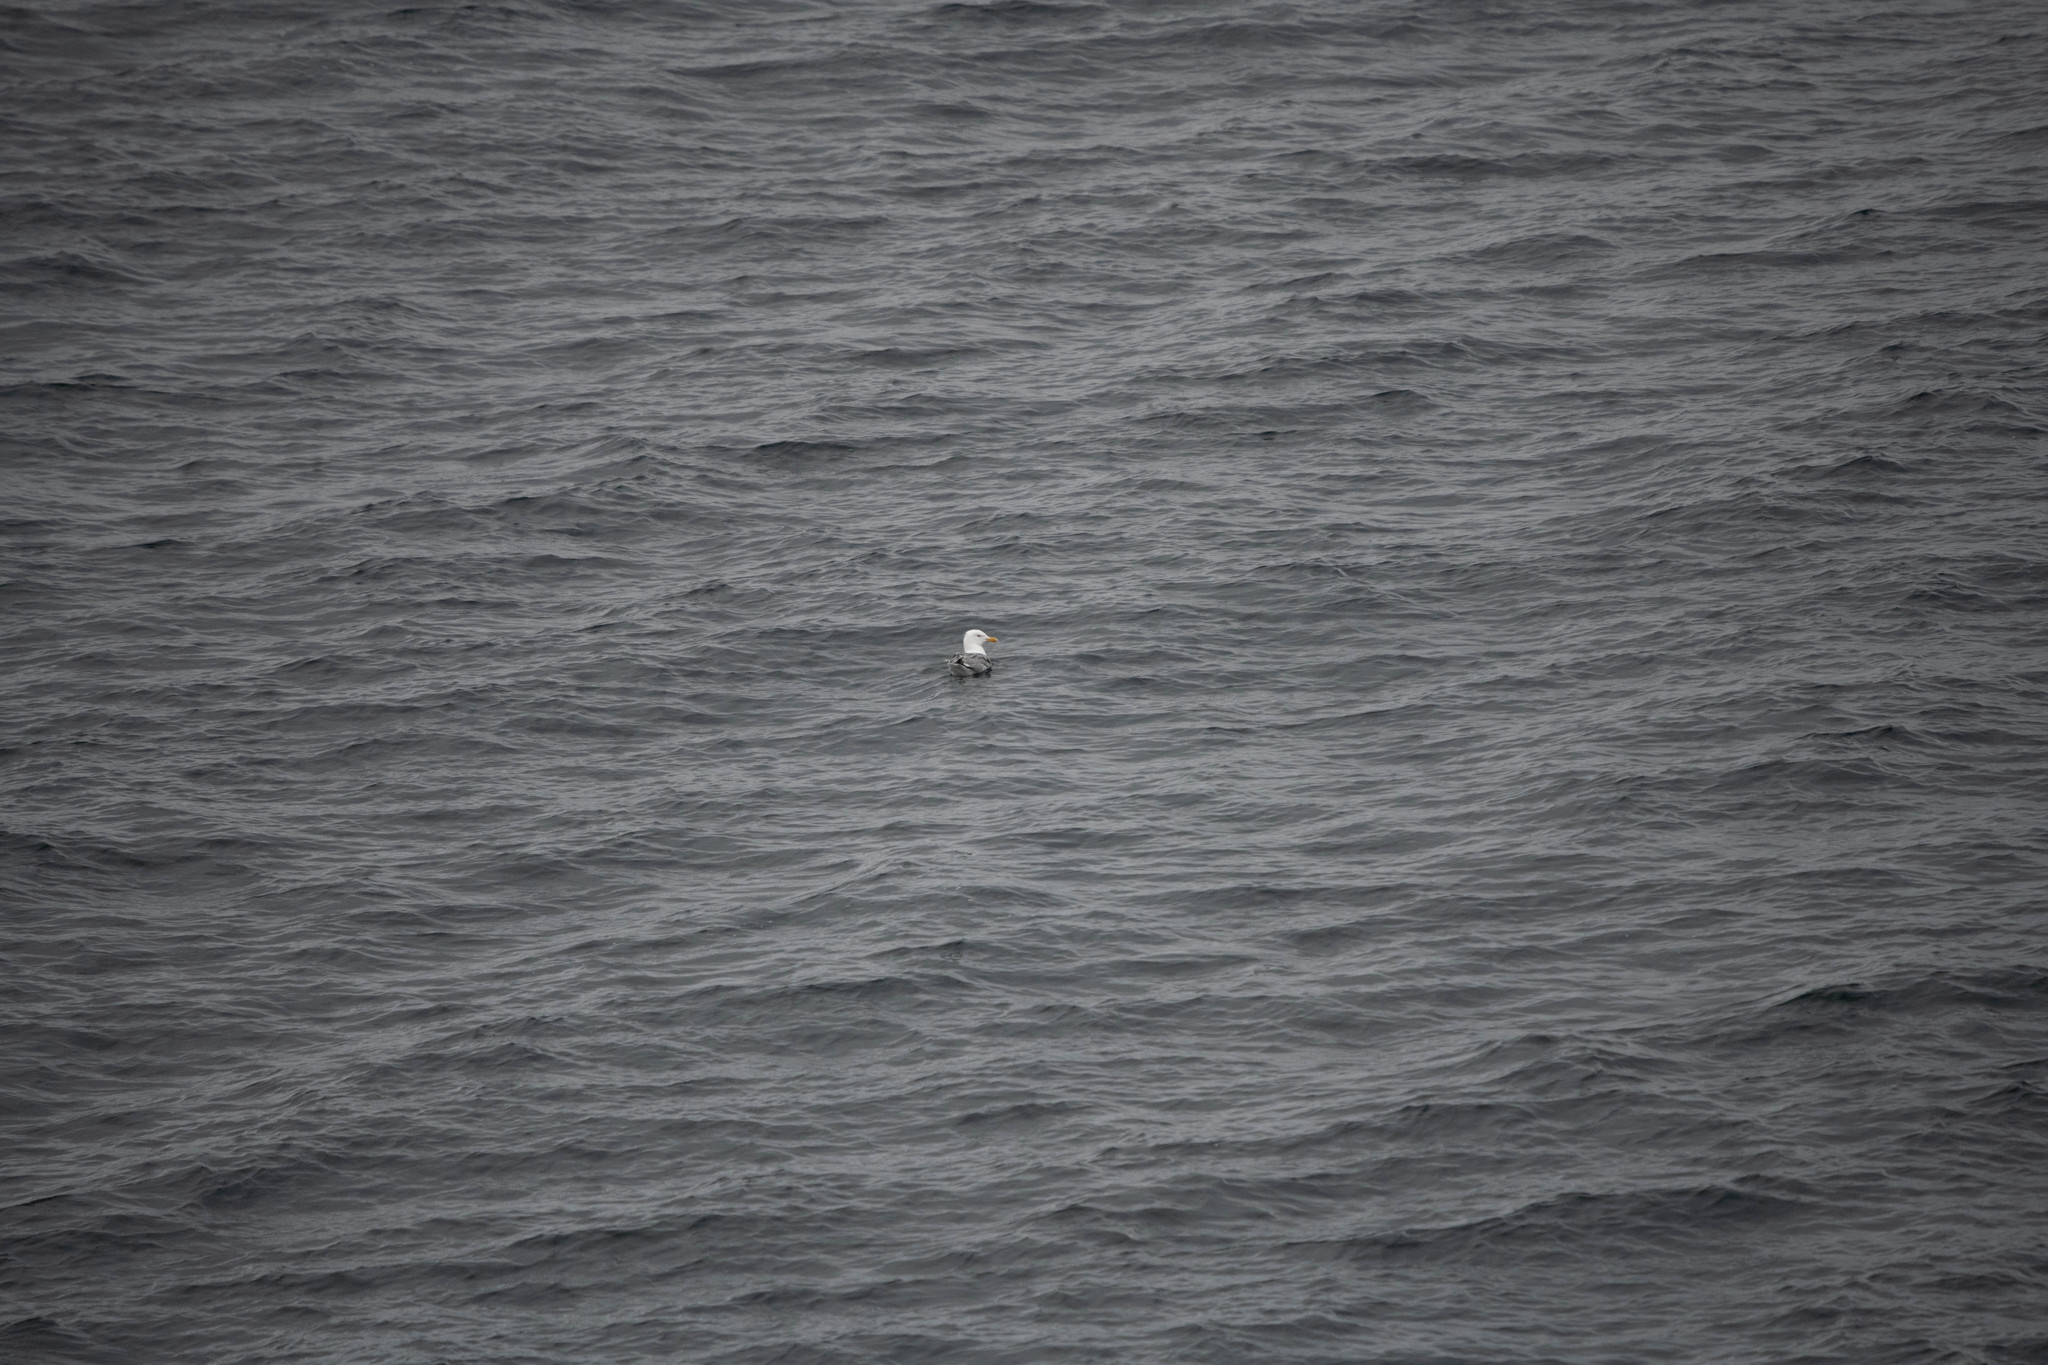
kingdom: Animalia
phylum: Chordata
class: Aves
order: Charadriiformes
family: Laridae
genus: Larus
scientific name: Larus argentatus
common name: Herring gull
